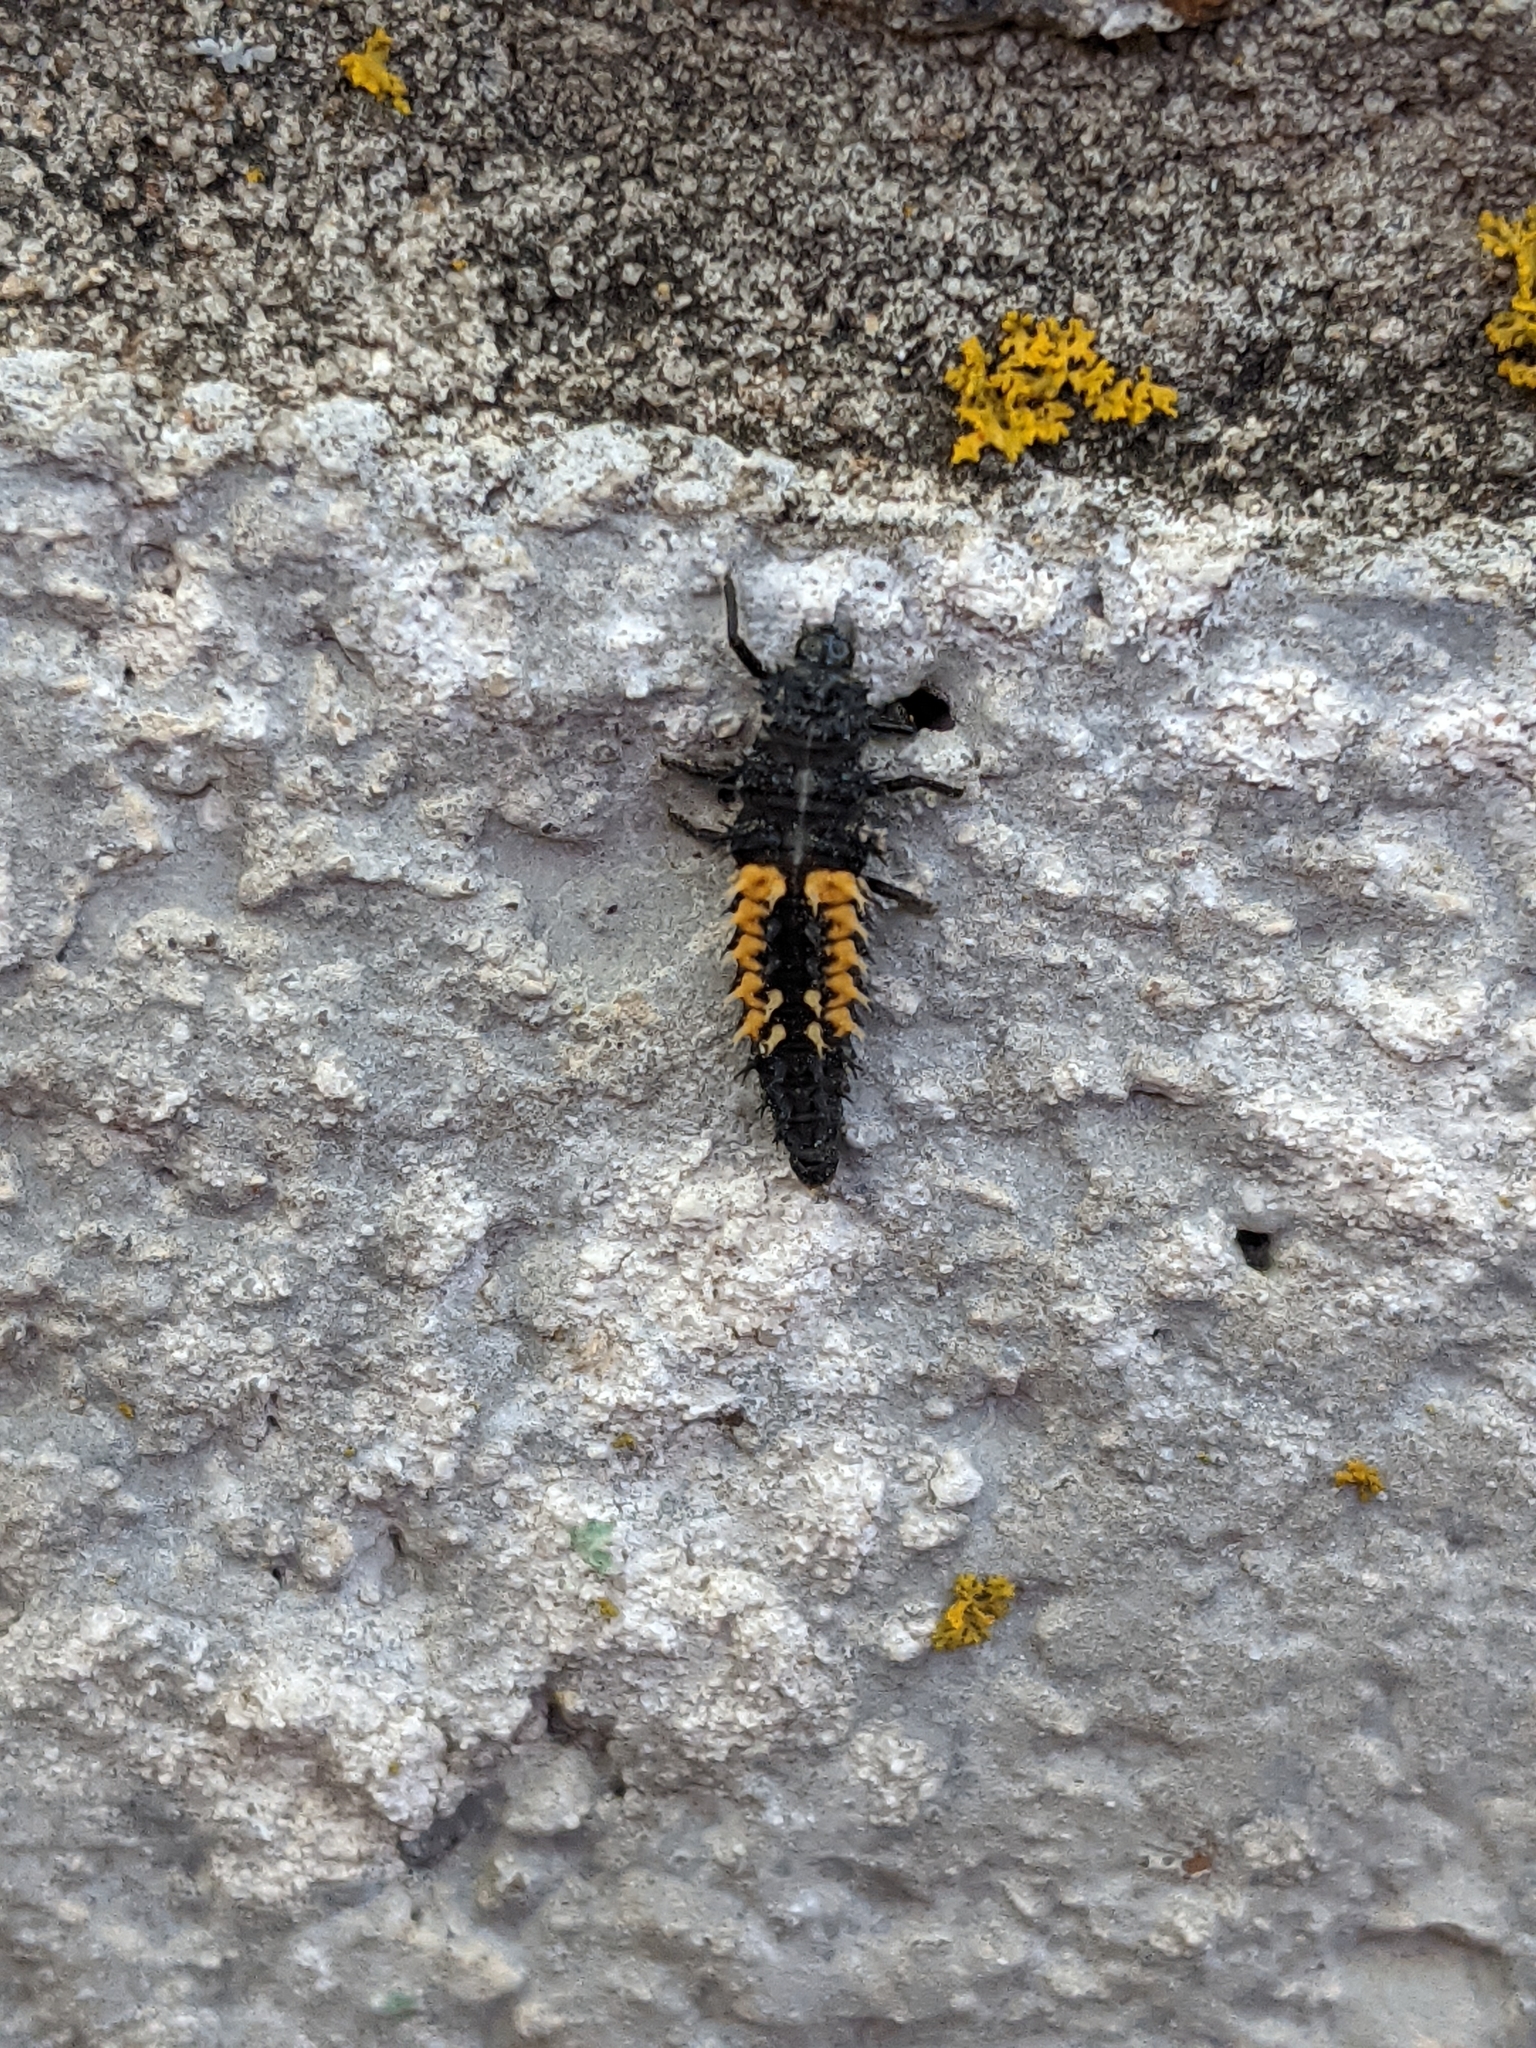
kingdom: Animalia
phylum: Arthropoda
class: Insecta
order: Coleoptera
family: Coccinellidae
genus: Harmonia
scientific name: Harmonia axyridis
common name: Harlequin ladybird
